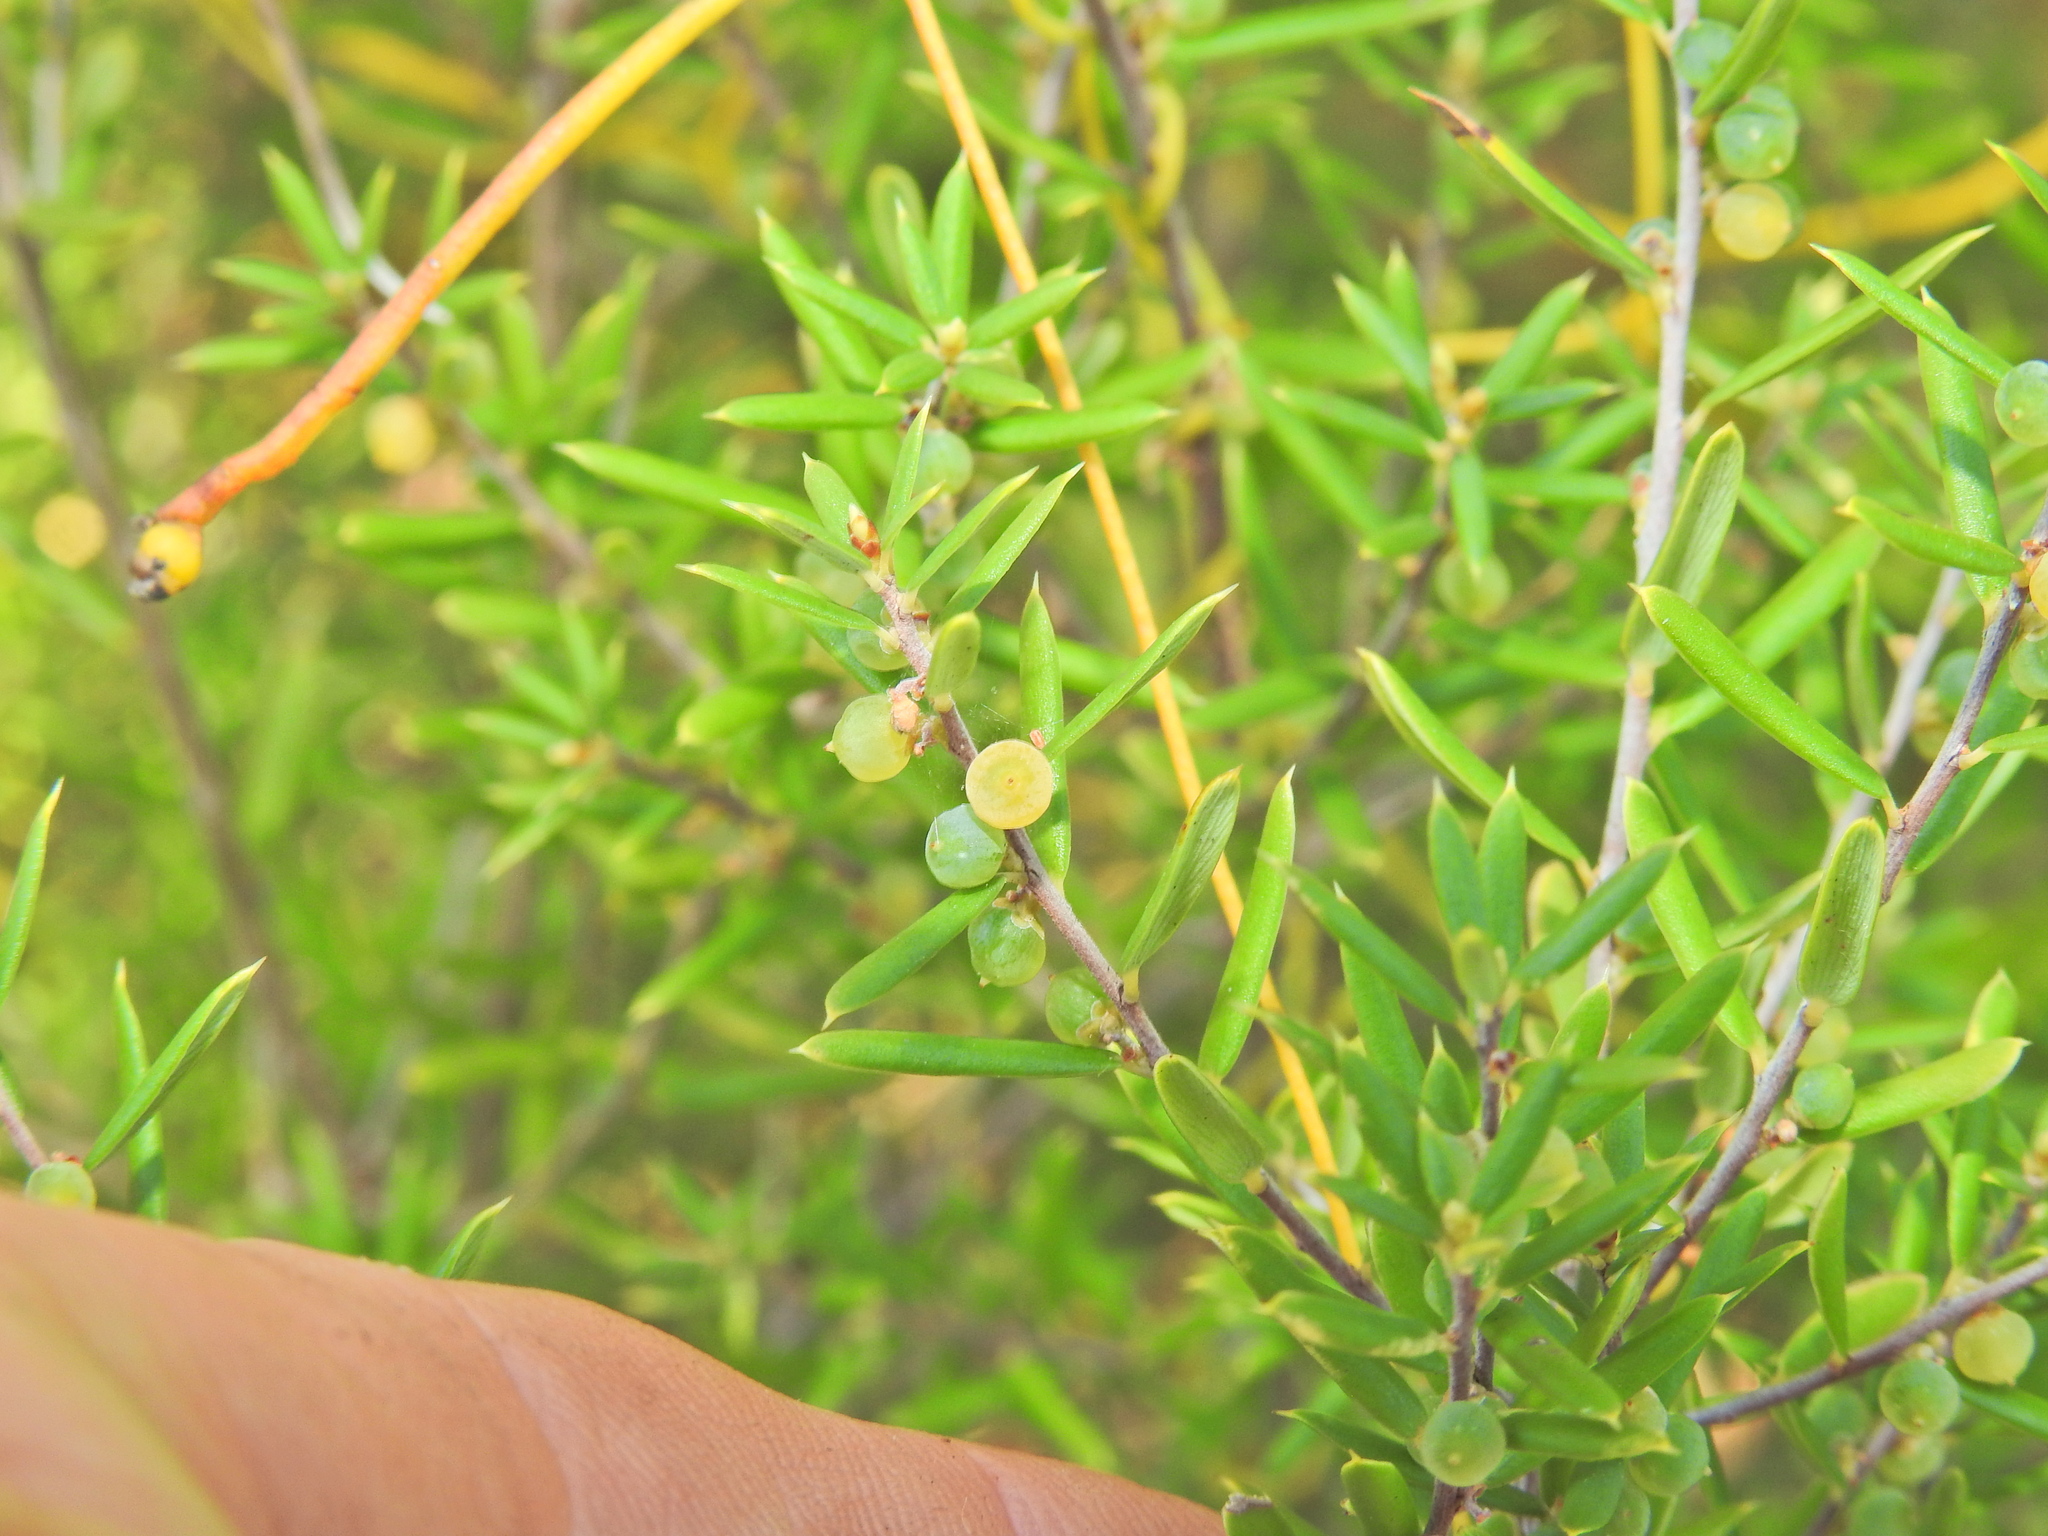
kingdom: Plantae
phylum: Tracheophyta
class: Magnoliopsida
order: Ericales
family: Ericaceae
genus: Monotoca
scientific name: Monotoca scoparia
